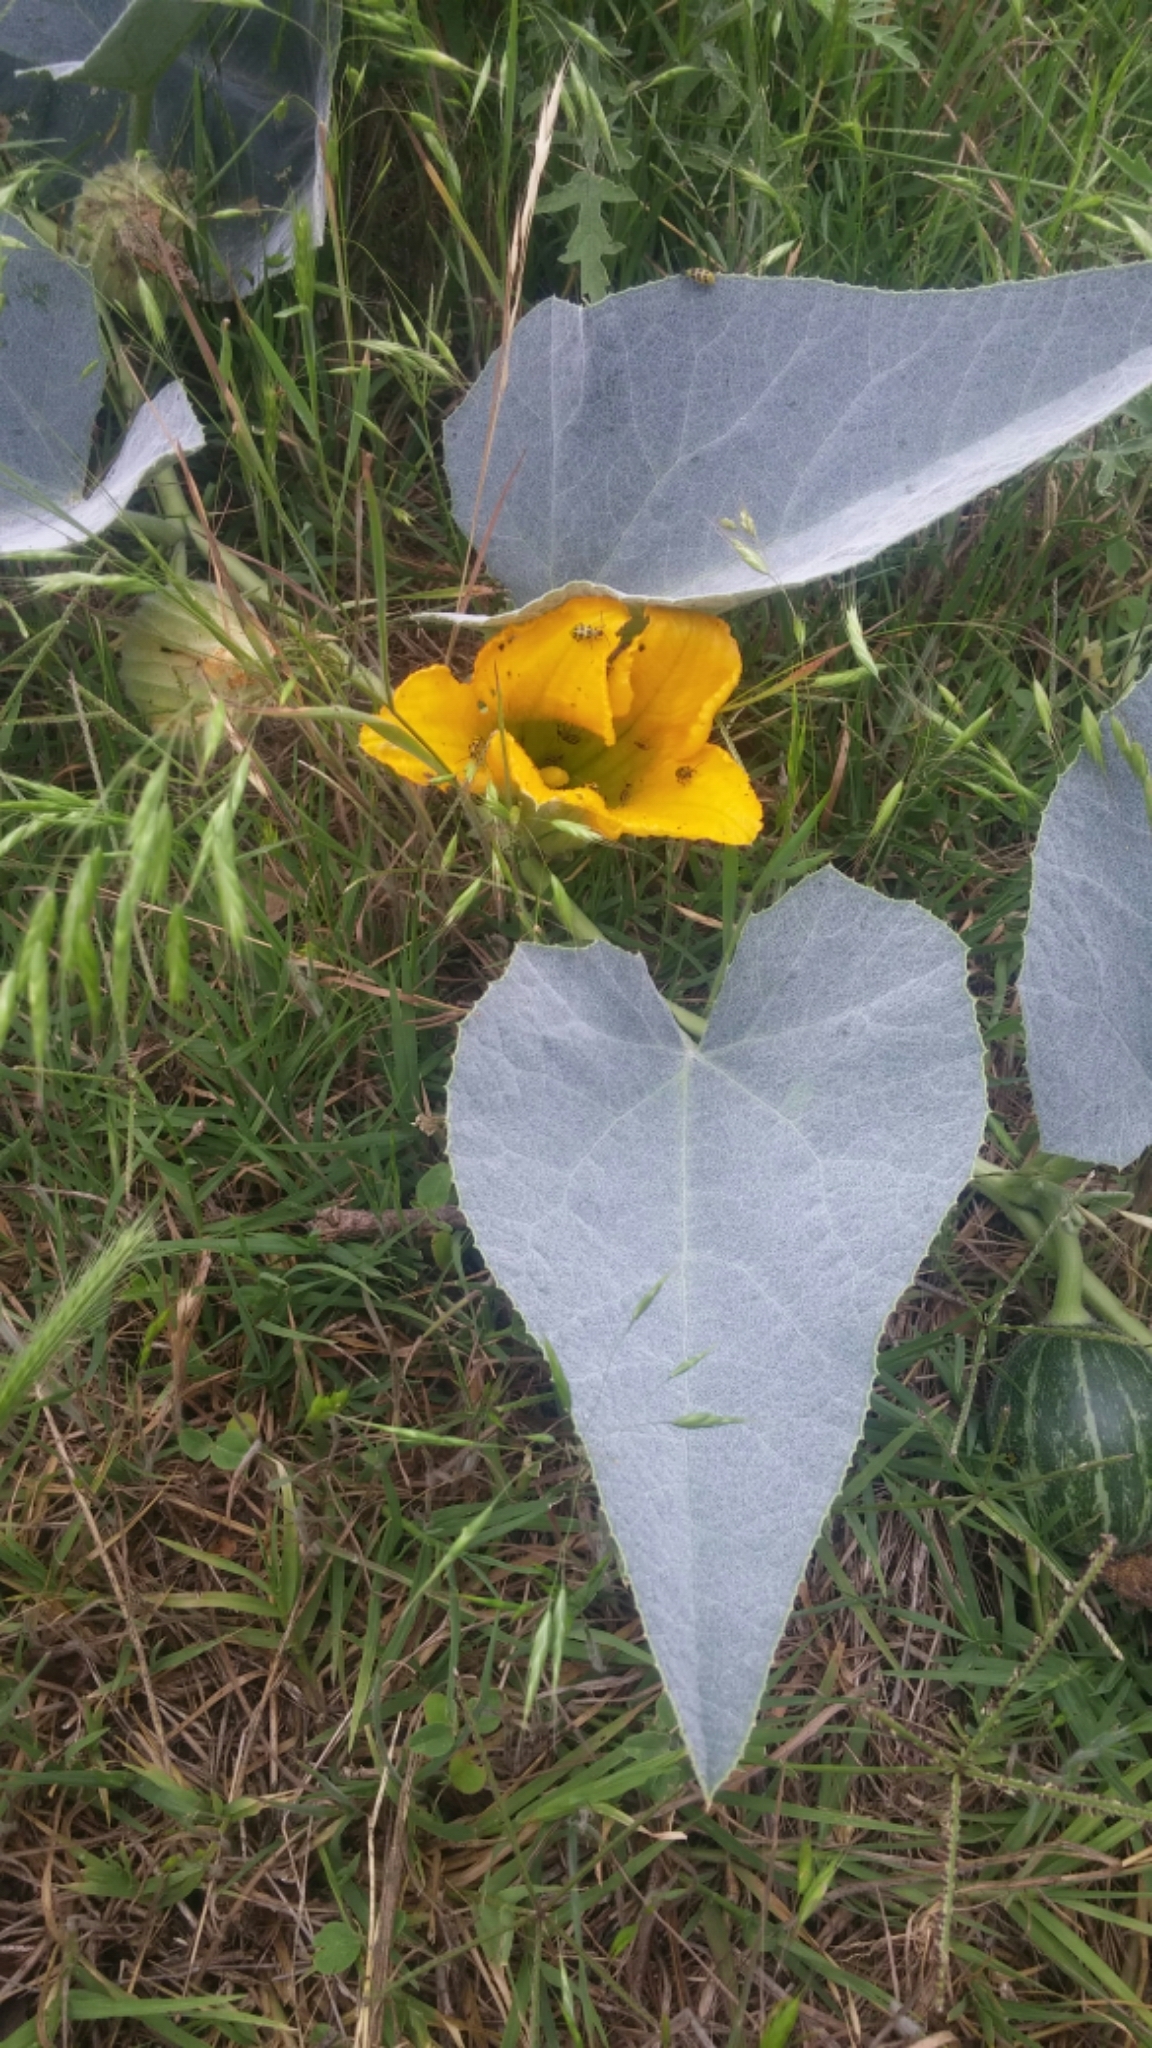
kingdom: Plantae
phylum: Tracheophyta
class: Magnoliopsida
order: Cucurbitales
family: Cucurbitaceae
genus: Cucurbita
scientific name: Cucurbita foetidissima
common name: Buffalo gourd
